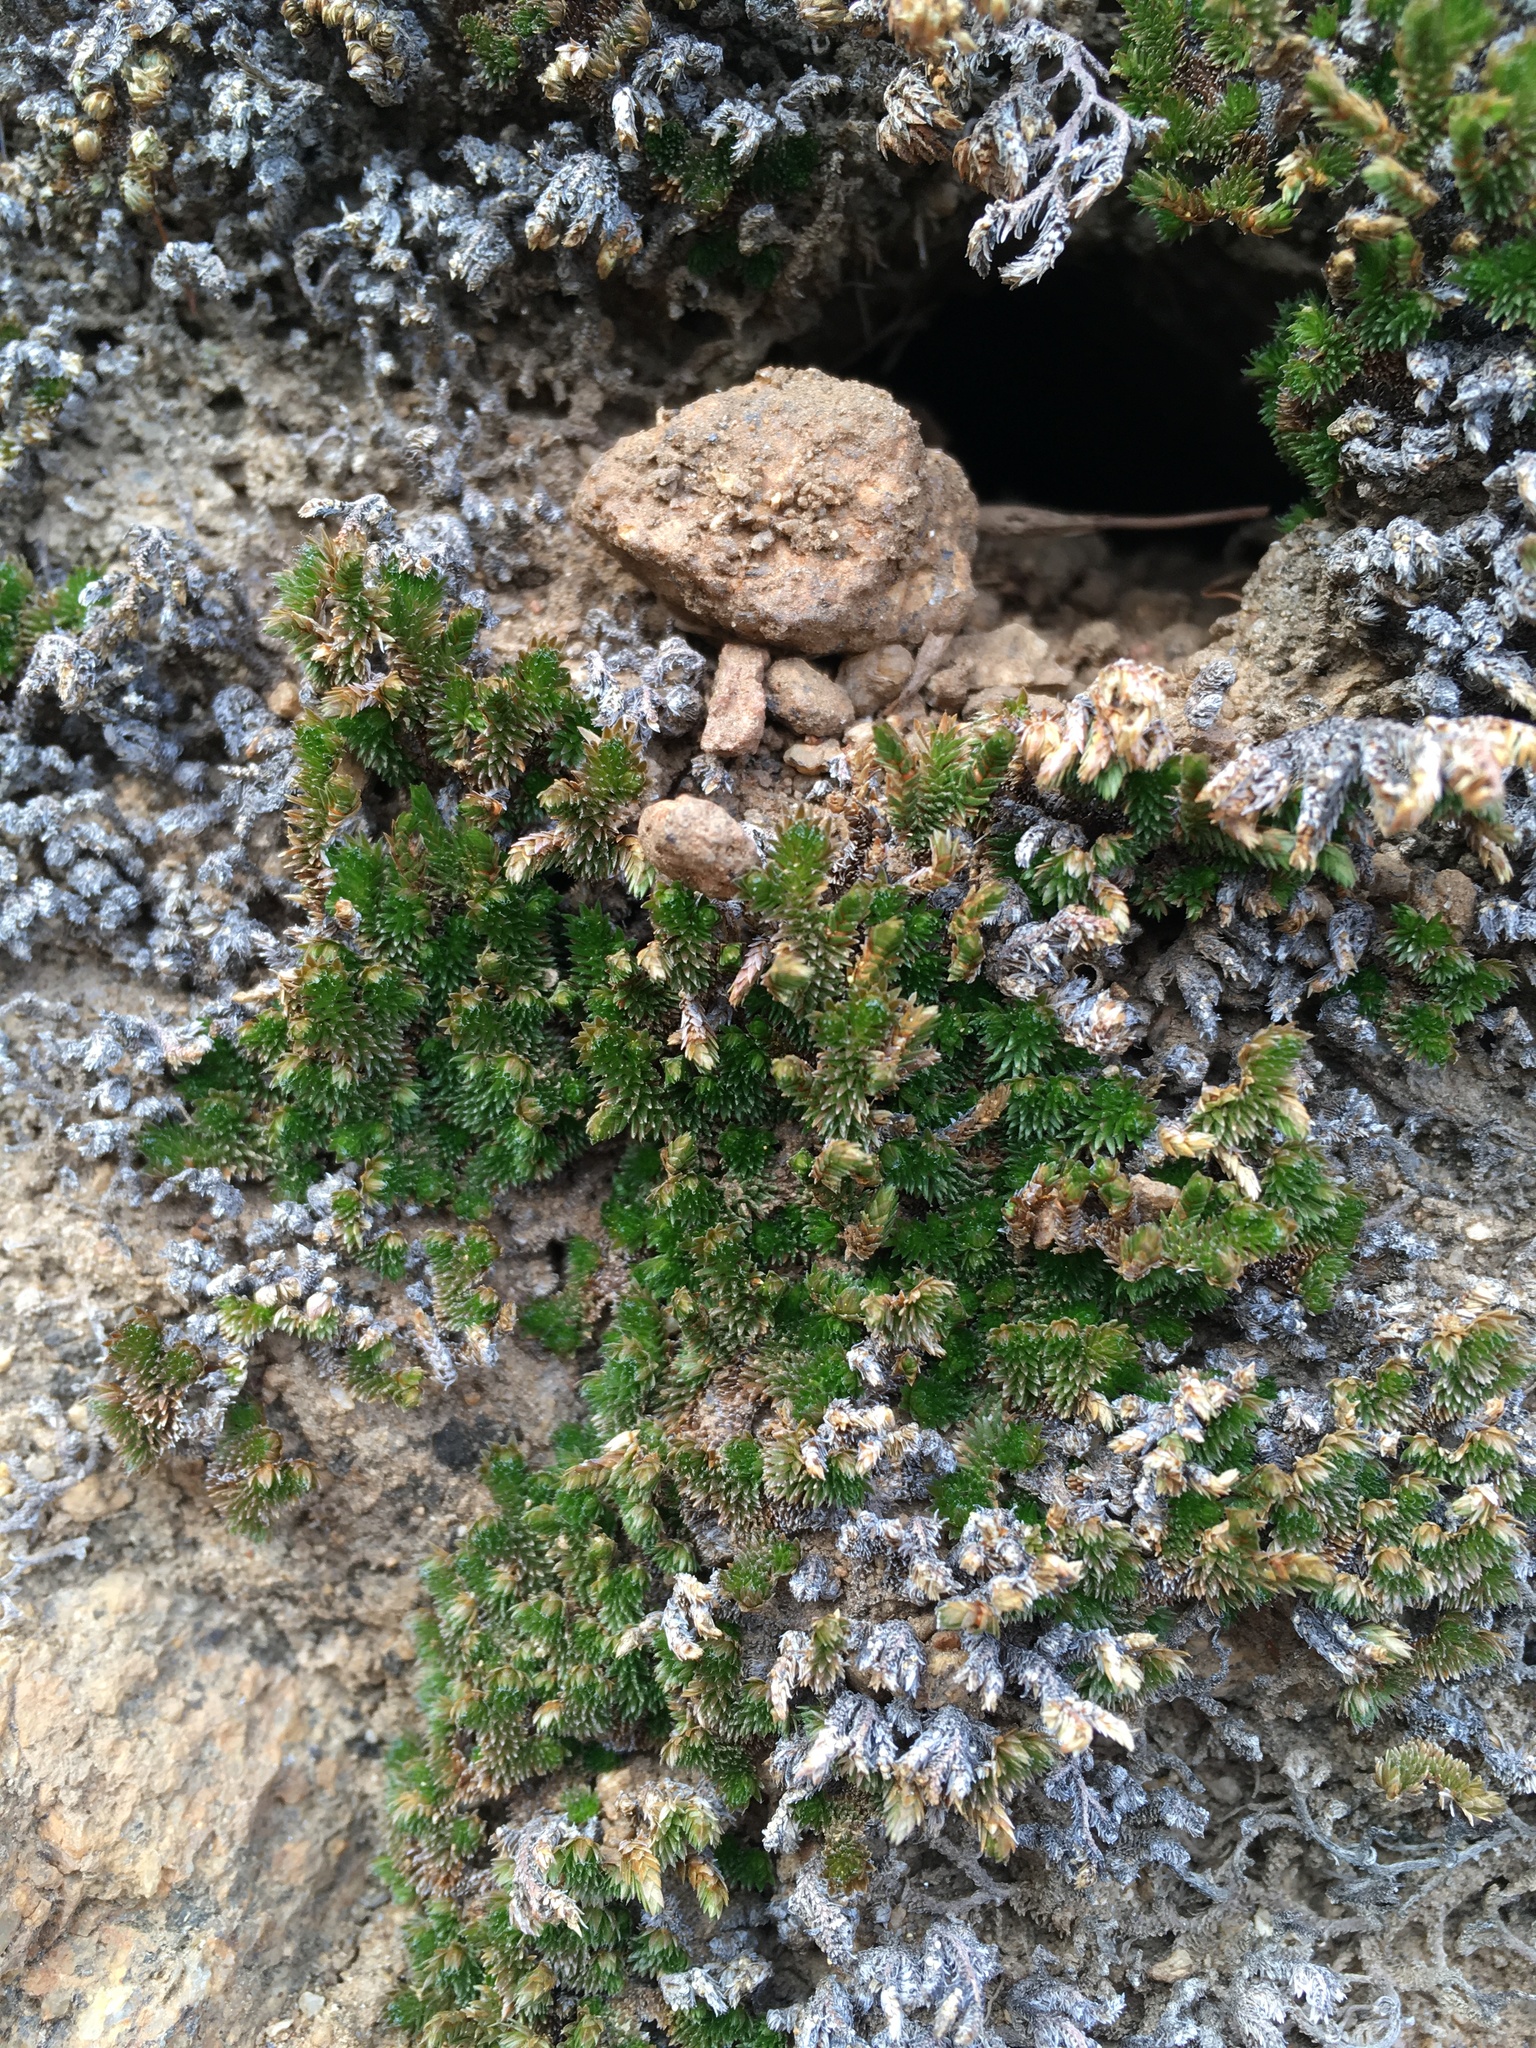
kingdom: Plantae
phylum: Tracheophyta
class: Lycopodiopsida
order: Selaginellales
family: Selaginellaceae
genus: Selaginella
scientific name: Selaginella eremophila
